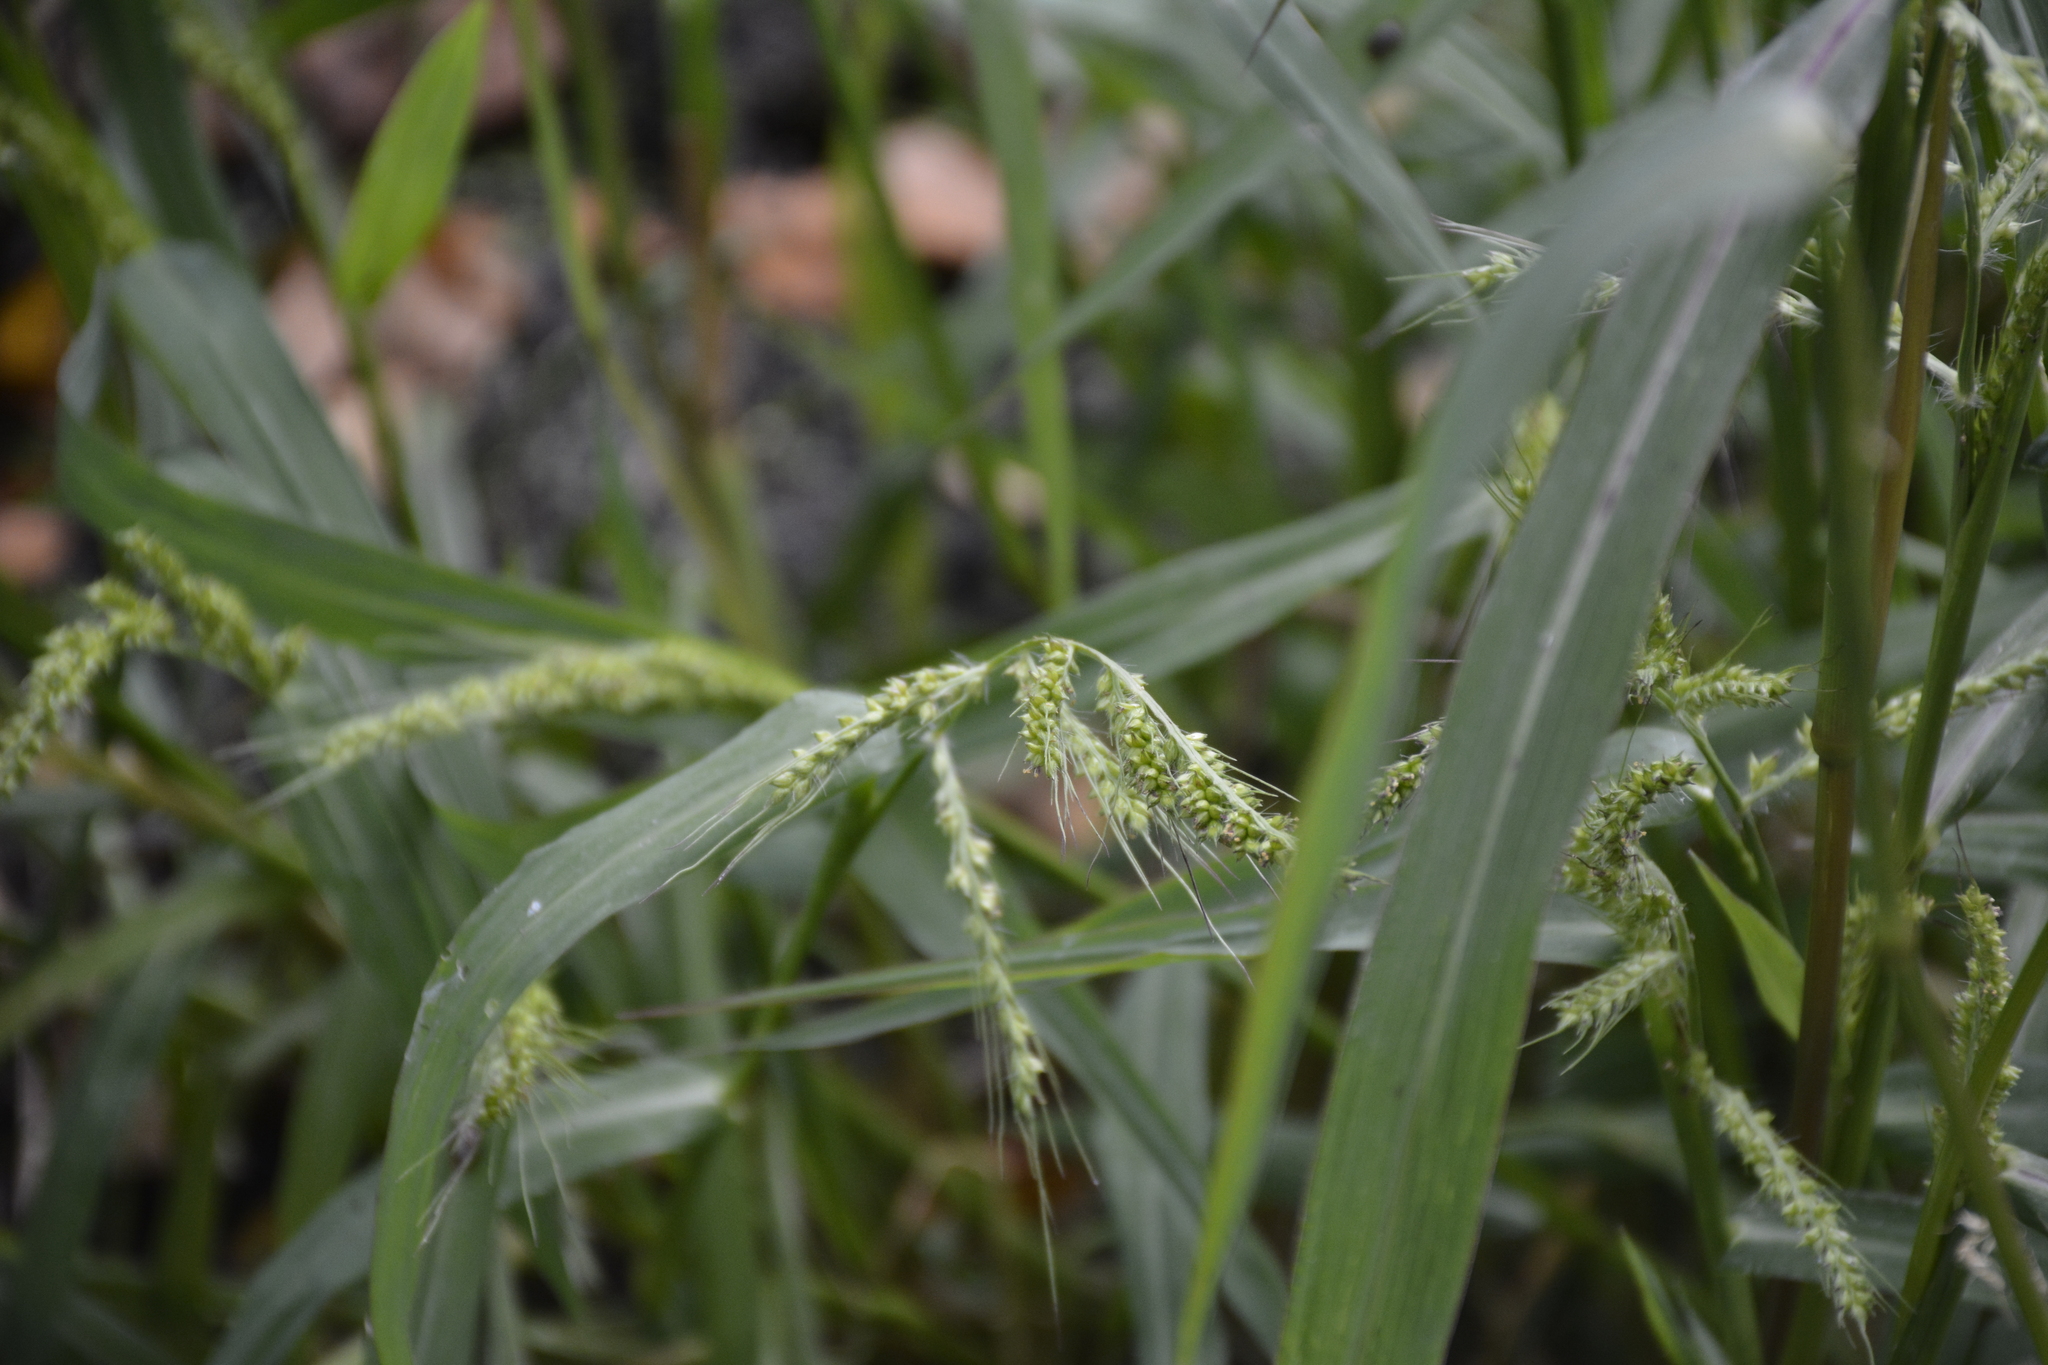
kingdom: Plantae
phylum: Tracheophyta
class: Liliopsida
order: Poales
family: Poaceae
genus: Echinochloa
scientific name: Echinochloa crus-galli
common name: Cockspur
